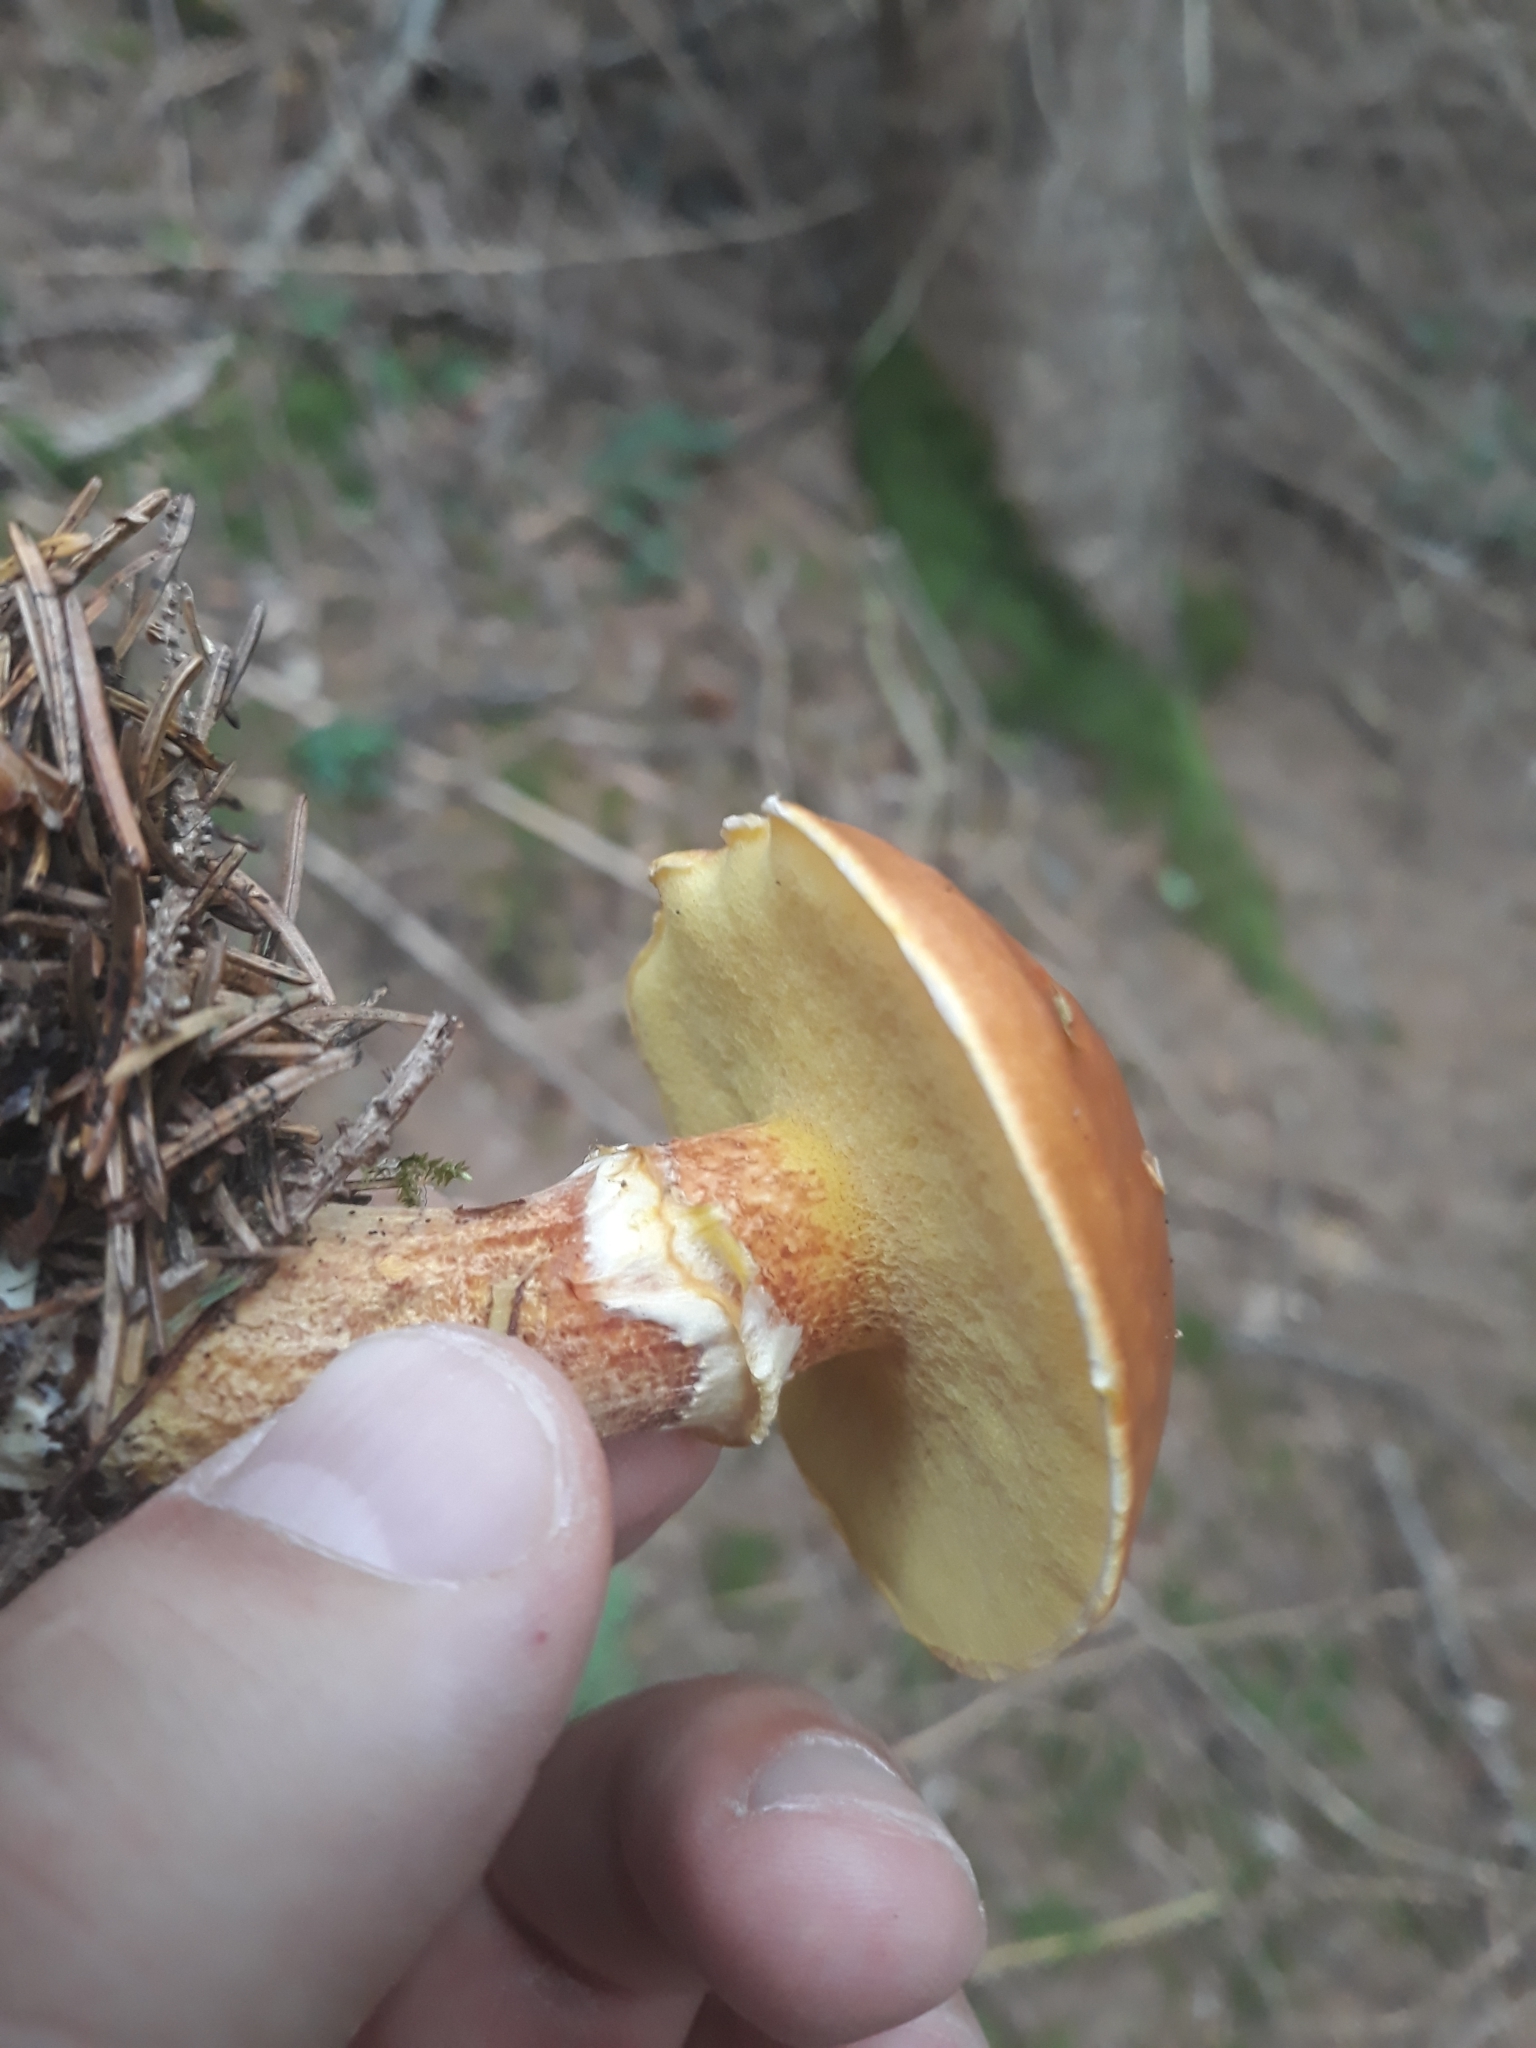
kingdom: Fungi
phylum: Basidiomycota
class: Agaricomycetes
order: Boletales
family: Suillaceae
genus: Suillus
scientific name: Suillus grevillei
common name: Larch bolete
